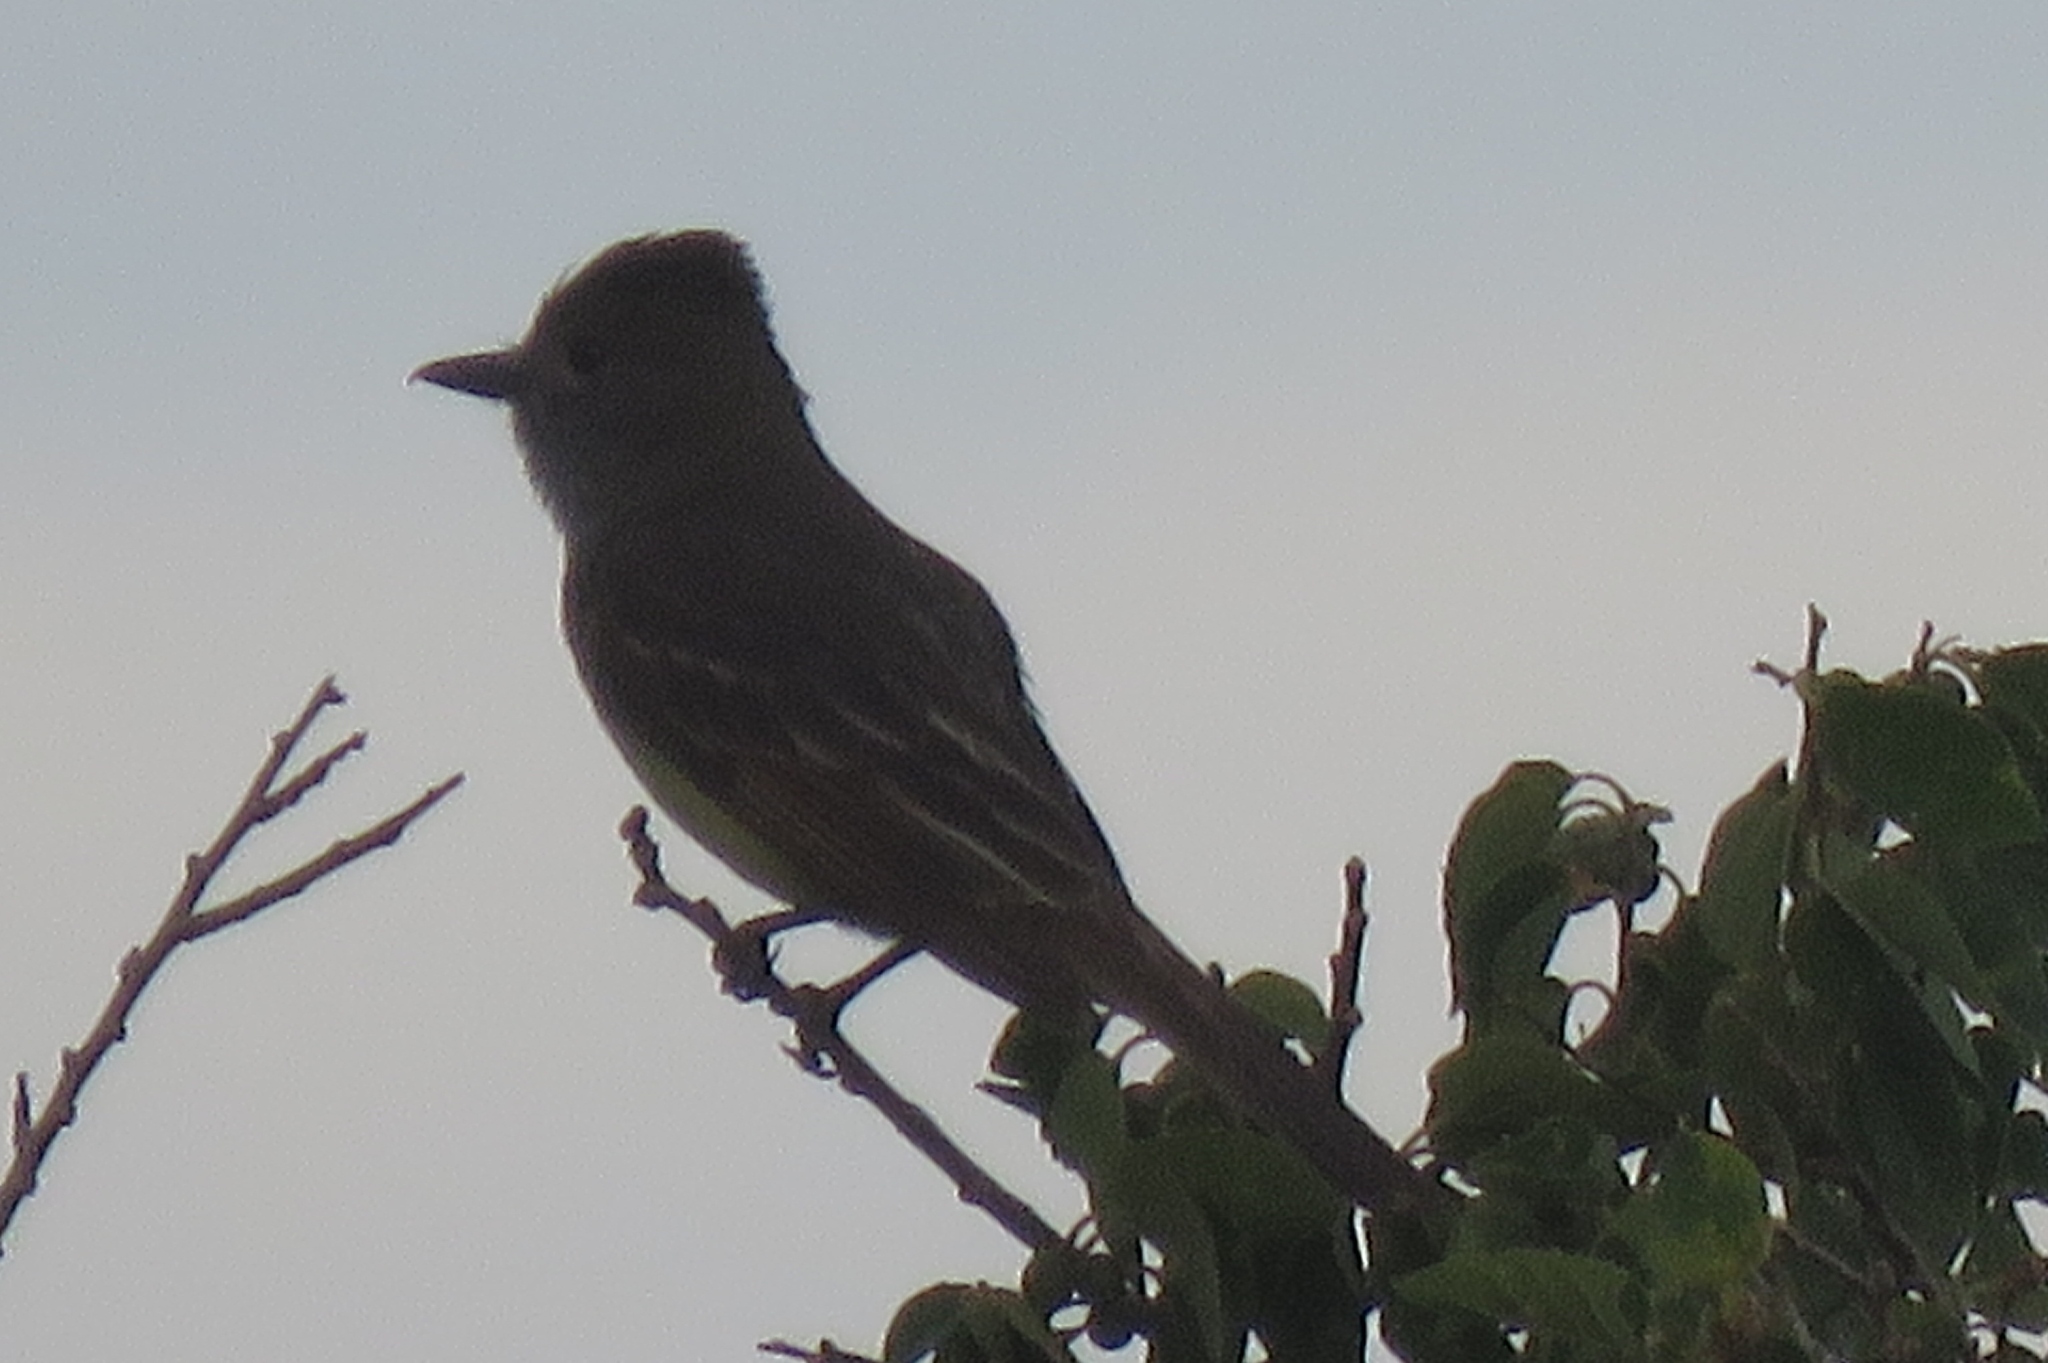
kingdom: Animalia
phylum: Chordata
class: Aves
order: Passeriformes
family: Tyrannidae
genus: Myiarchus
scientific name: Myiarchus crinitus
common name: Great crested flycatcher
